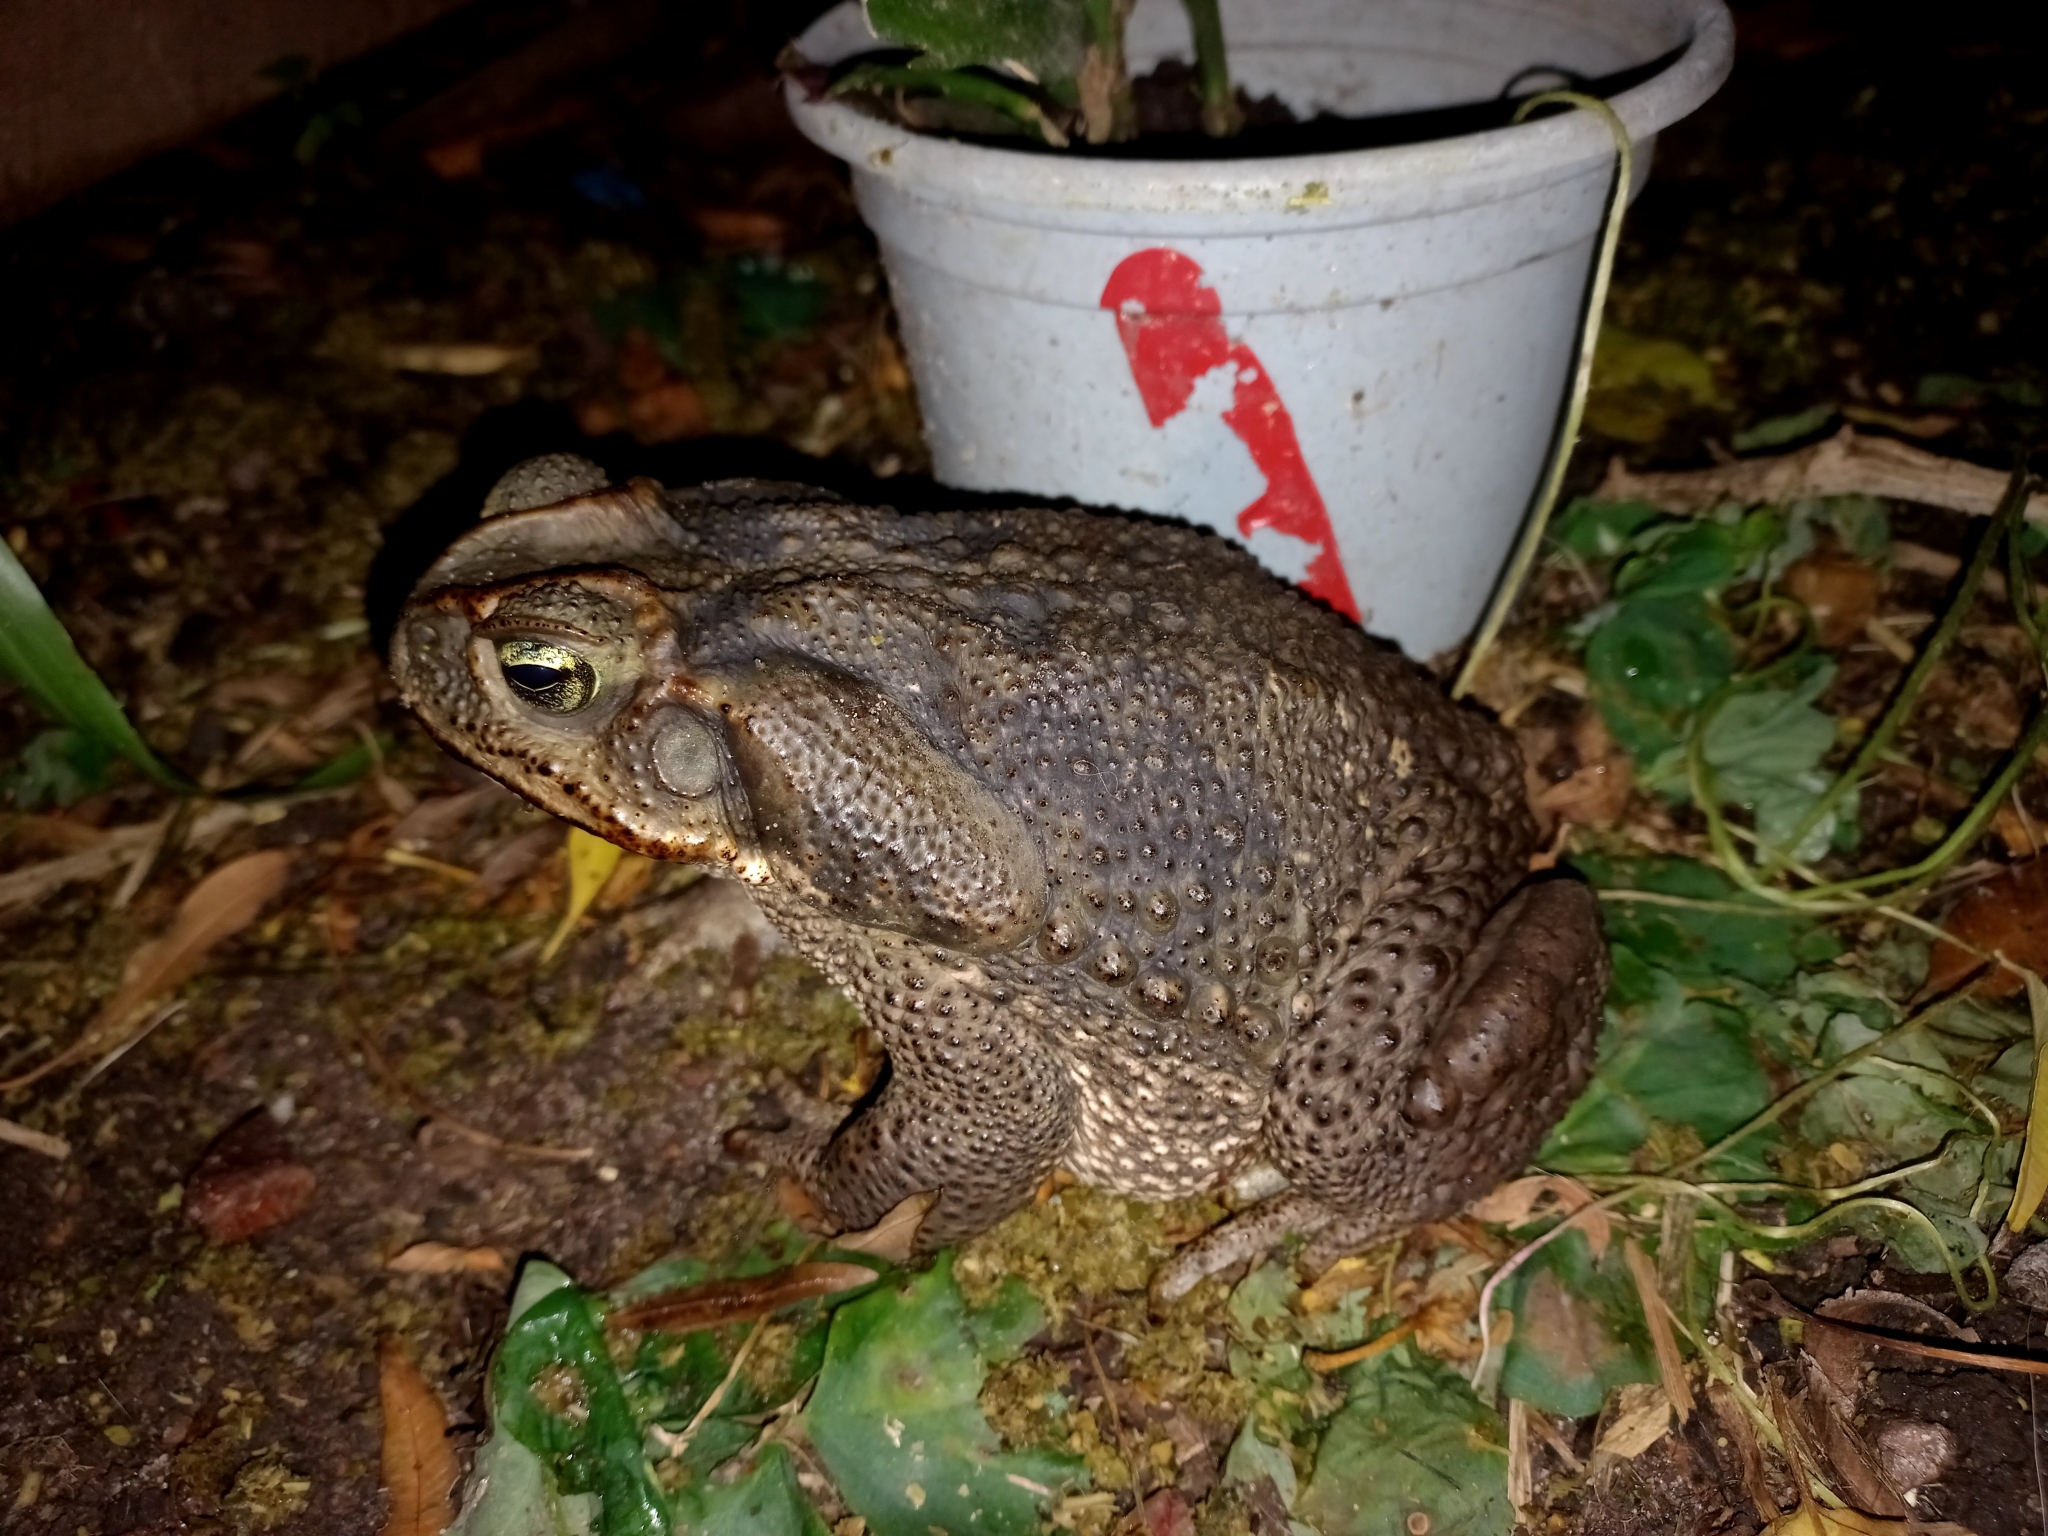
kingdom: Animalia
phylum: Chordata
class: Amphibia
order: Anura
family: Bufonidae
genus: Rhinella
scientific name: Rhinella diptycha
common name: Cope's toad
